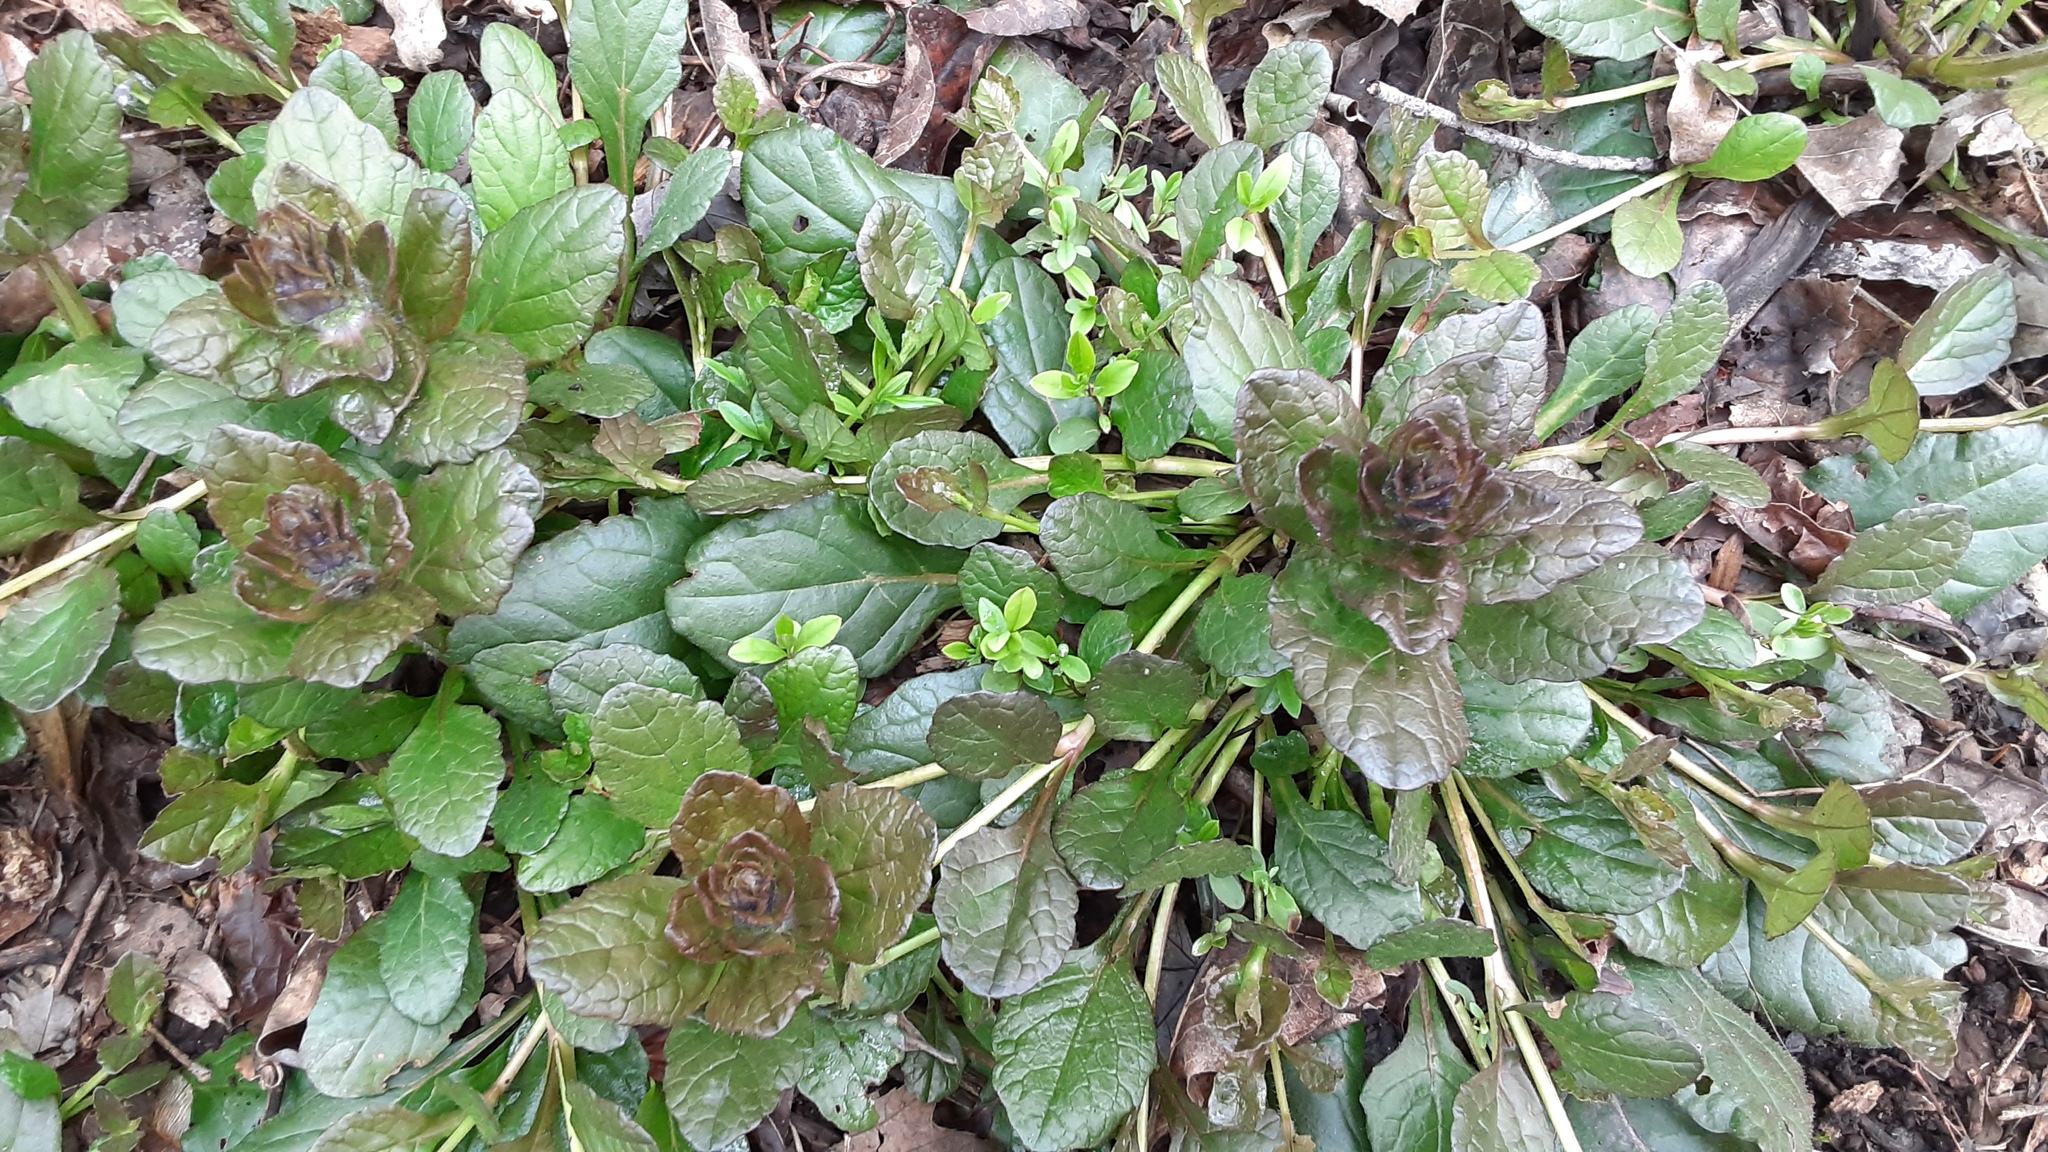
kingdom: Plantae
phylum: Tracheophyta
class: Magnoliopsida
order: Lamiales
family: Lamiaceae
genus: Ajuga
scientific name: Ajuga reptans
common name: Bugle
